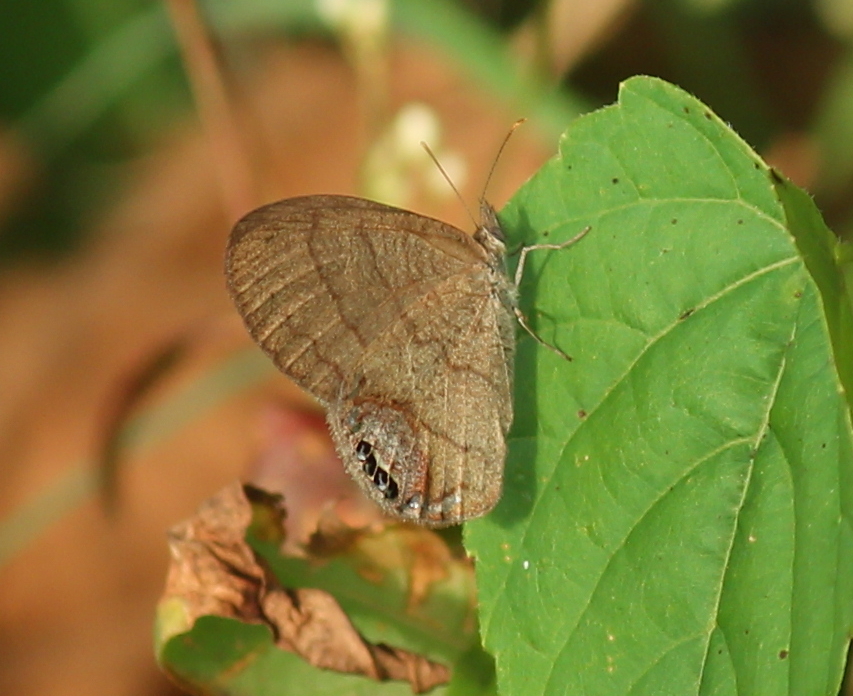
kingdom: Animalia
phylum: Arthropoda
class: Insecta
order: Lepidoptera
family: Nymphalidae
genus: Euptychia
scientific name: Euptychia cornelius
